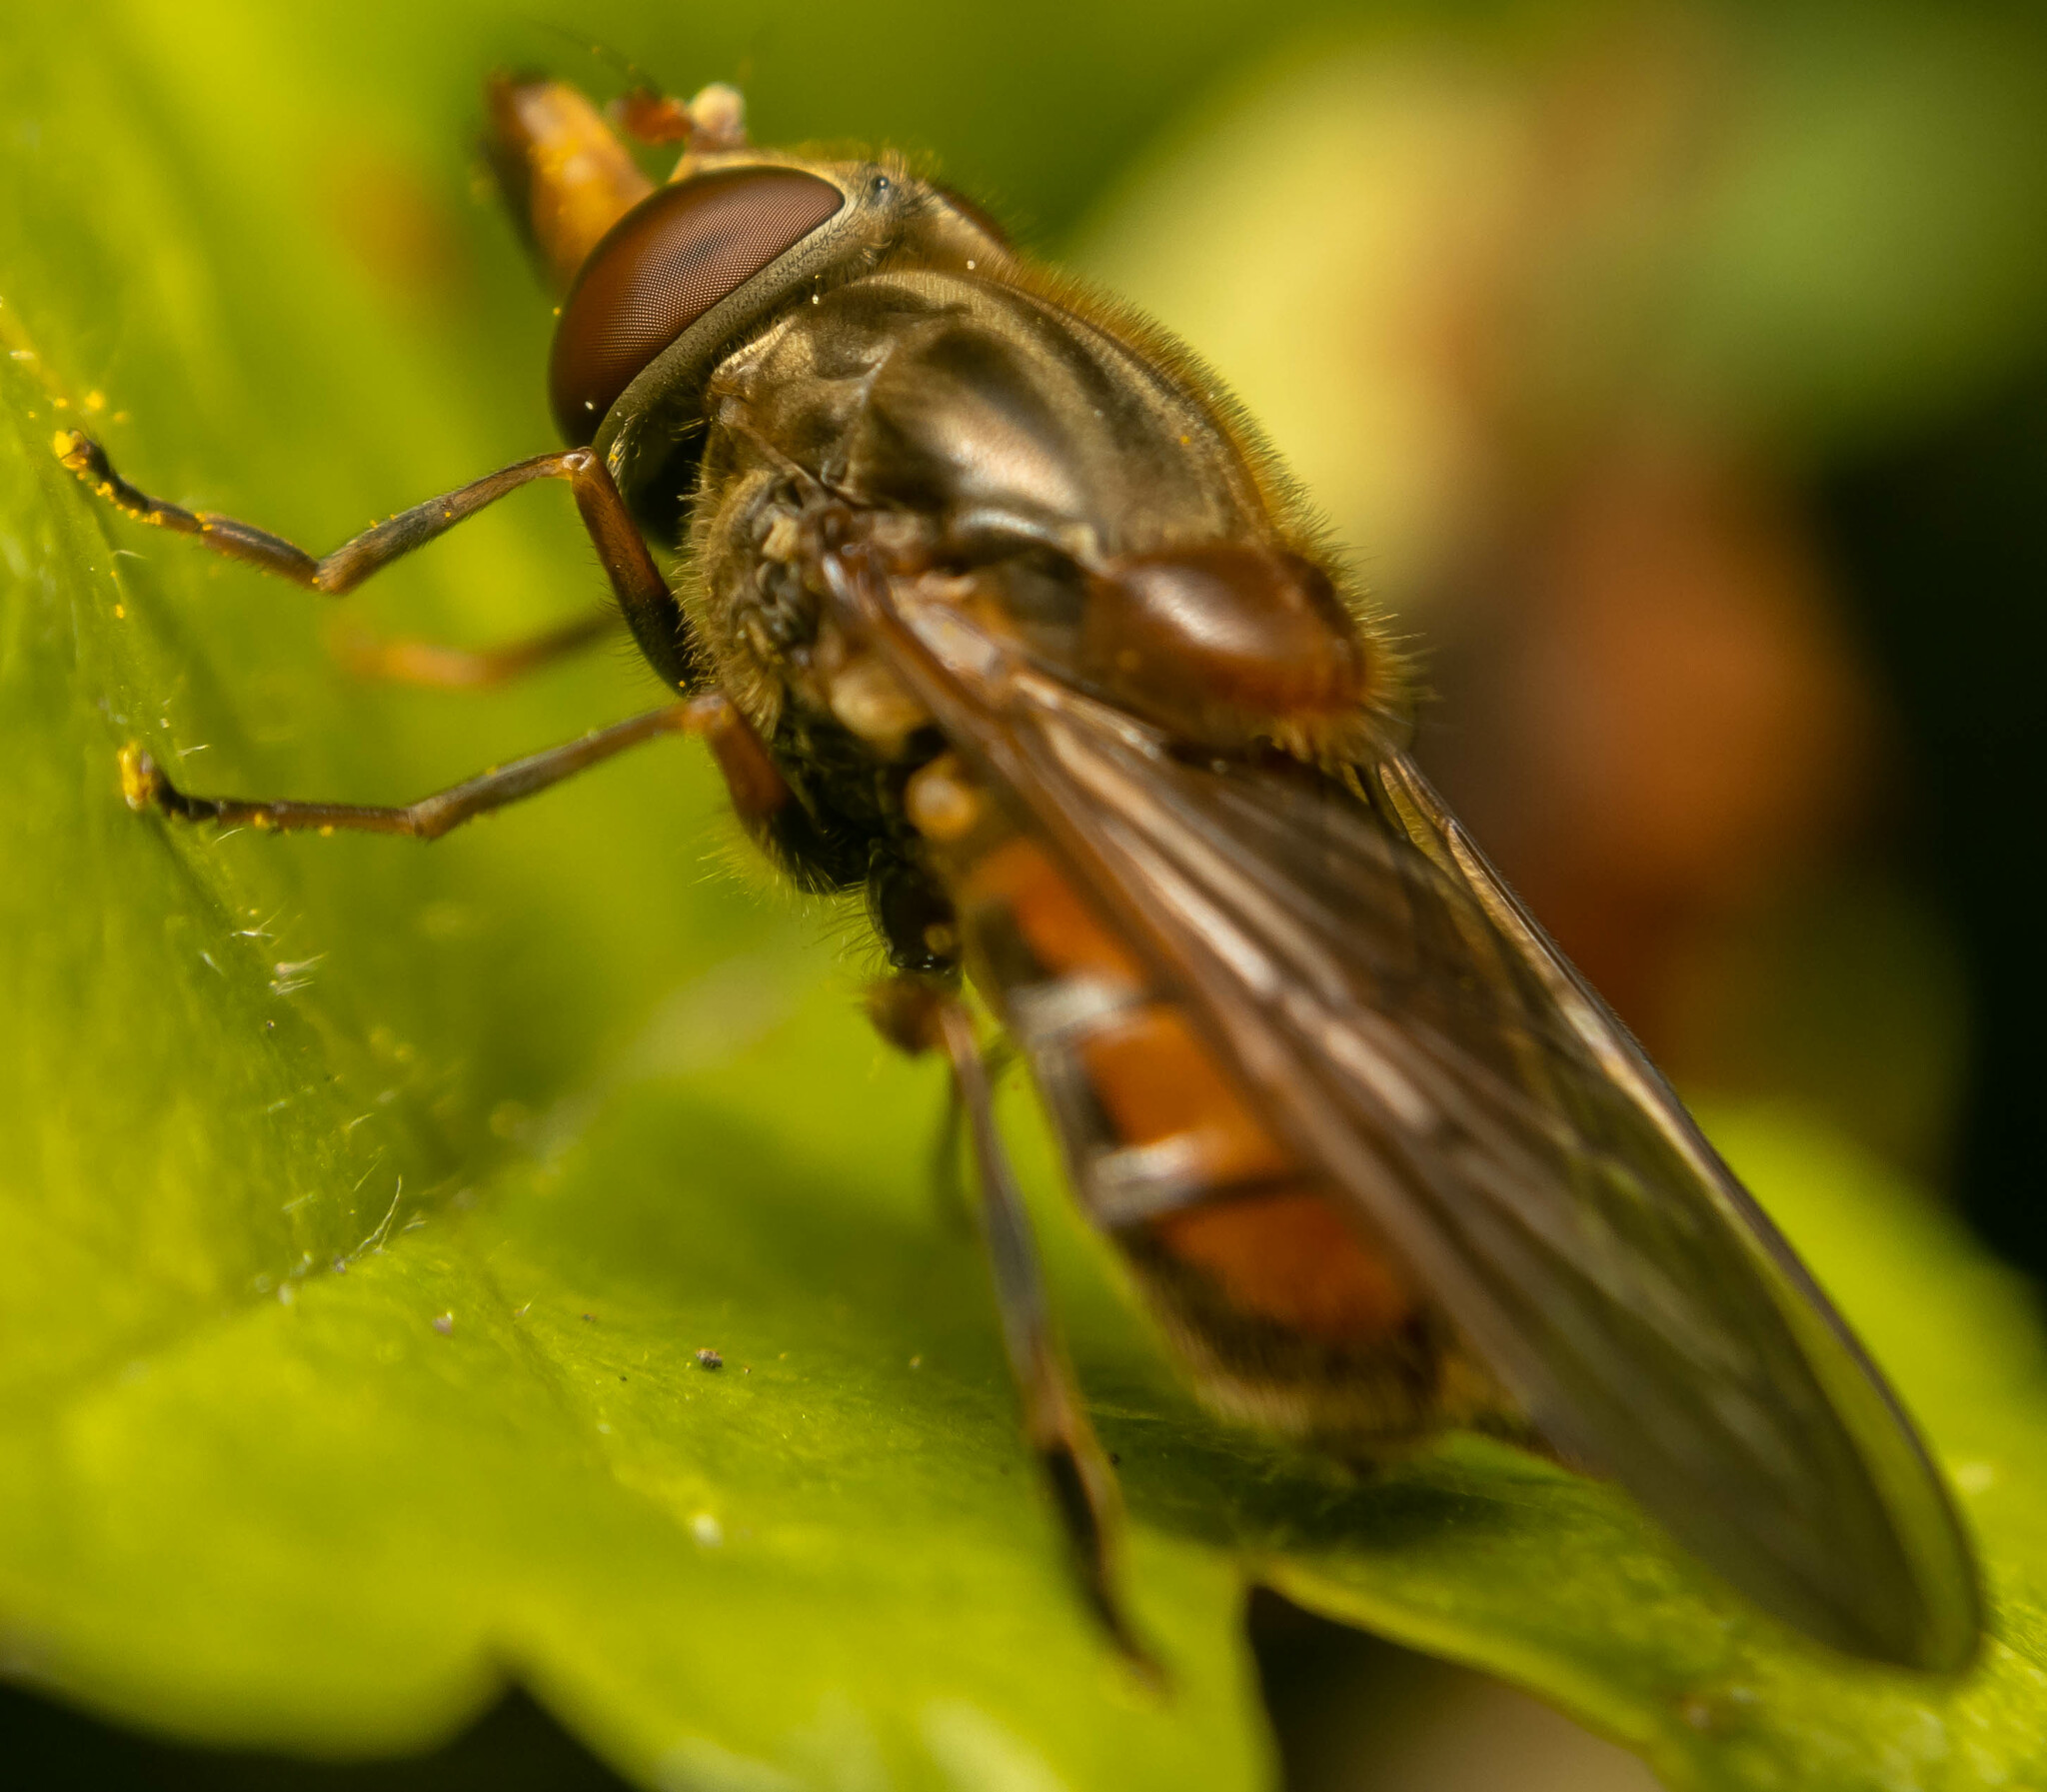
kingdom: Animalia
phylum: Arthropoda
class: Insecta
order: Diptera
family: Syrphidae
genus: Rhingia
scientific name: Rhingia campestris
